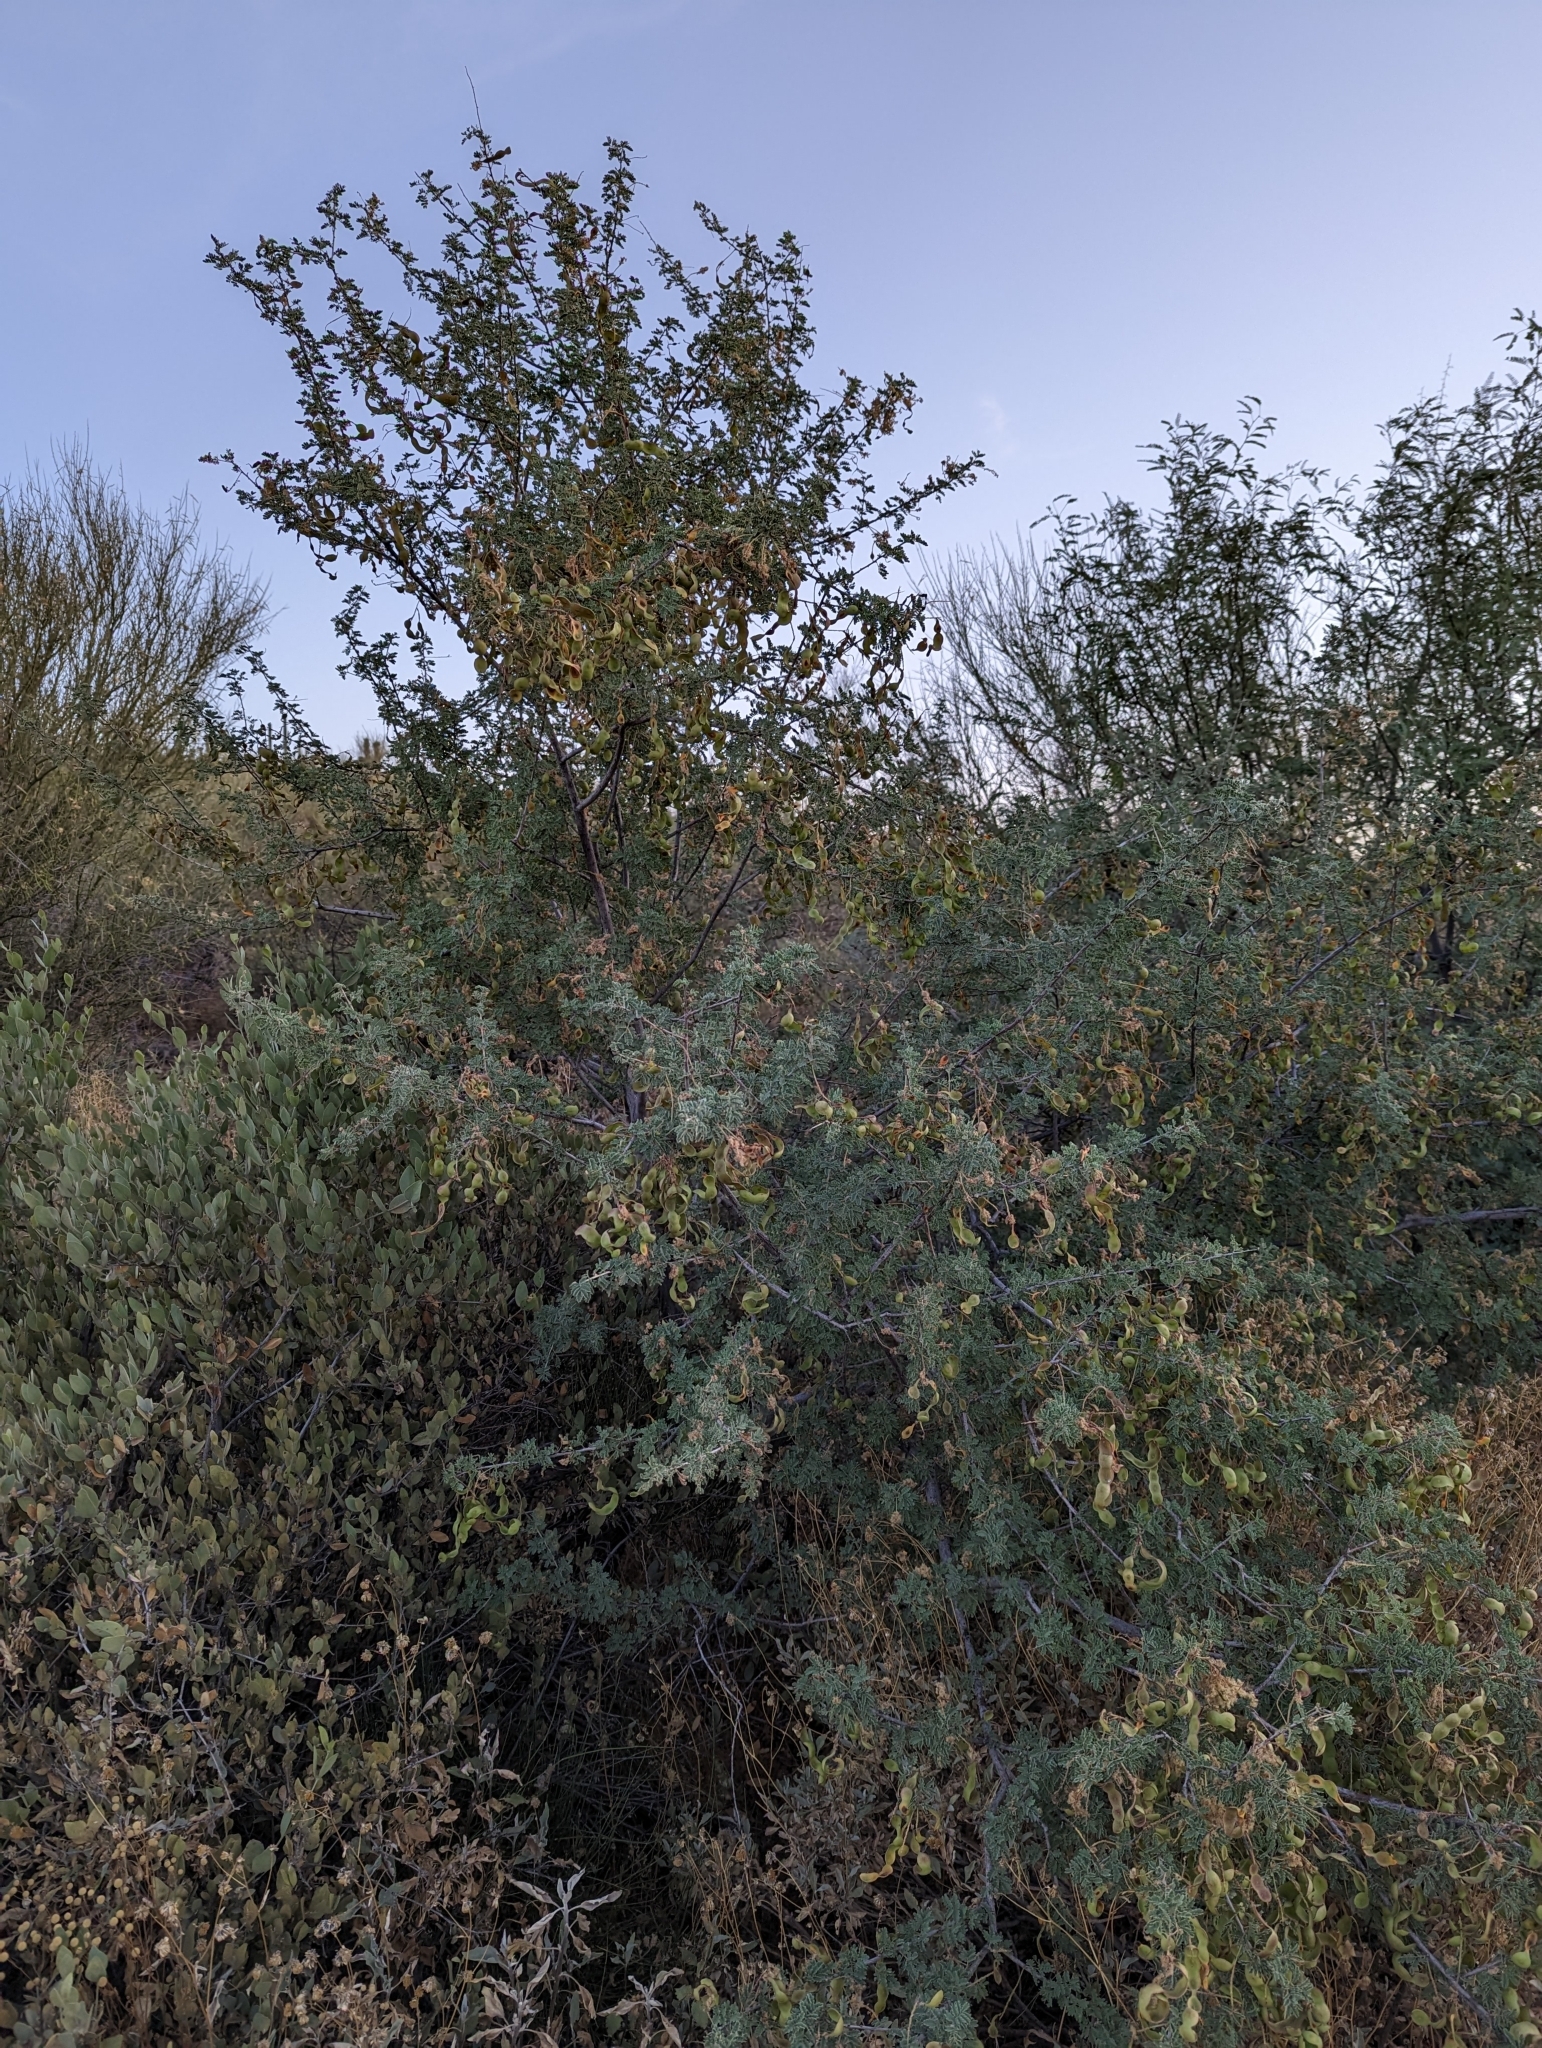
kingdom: Plantae
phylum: Tracheophyta
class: Magnoliopsida
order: Fabales
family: Fabaceae
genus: Senegalia
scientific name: Senegalia greggii
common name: Texas-mimosa
